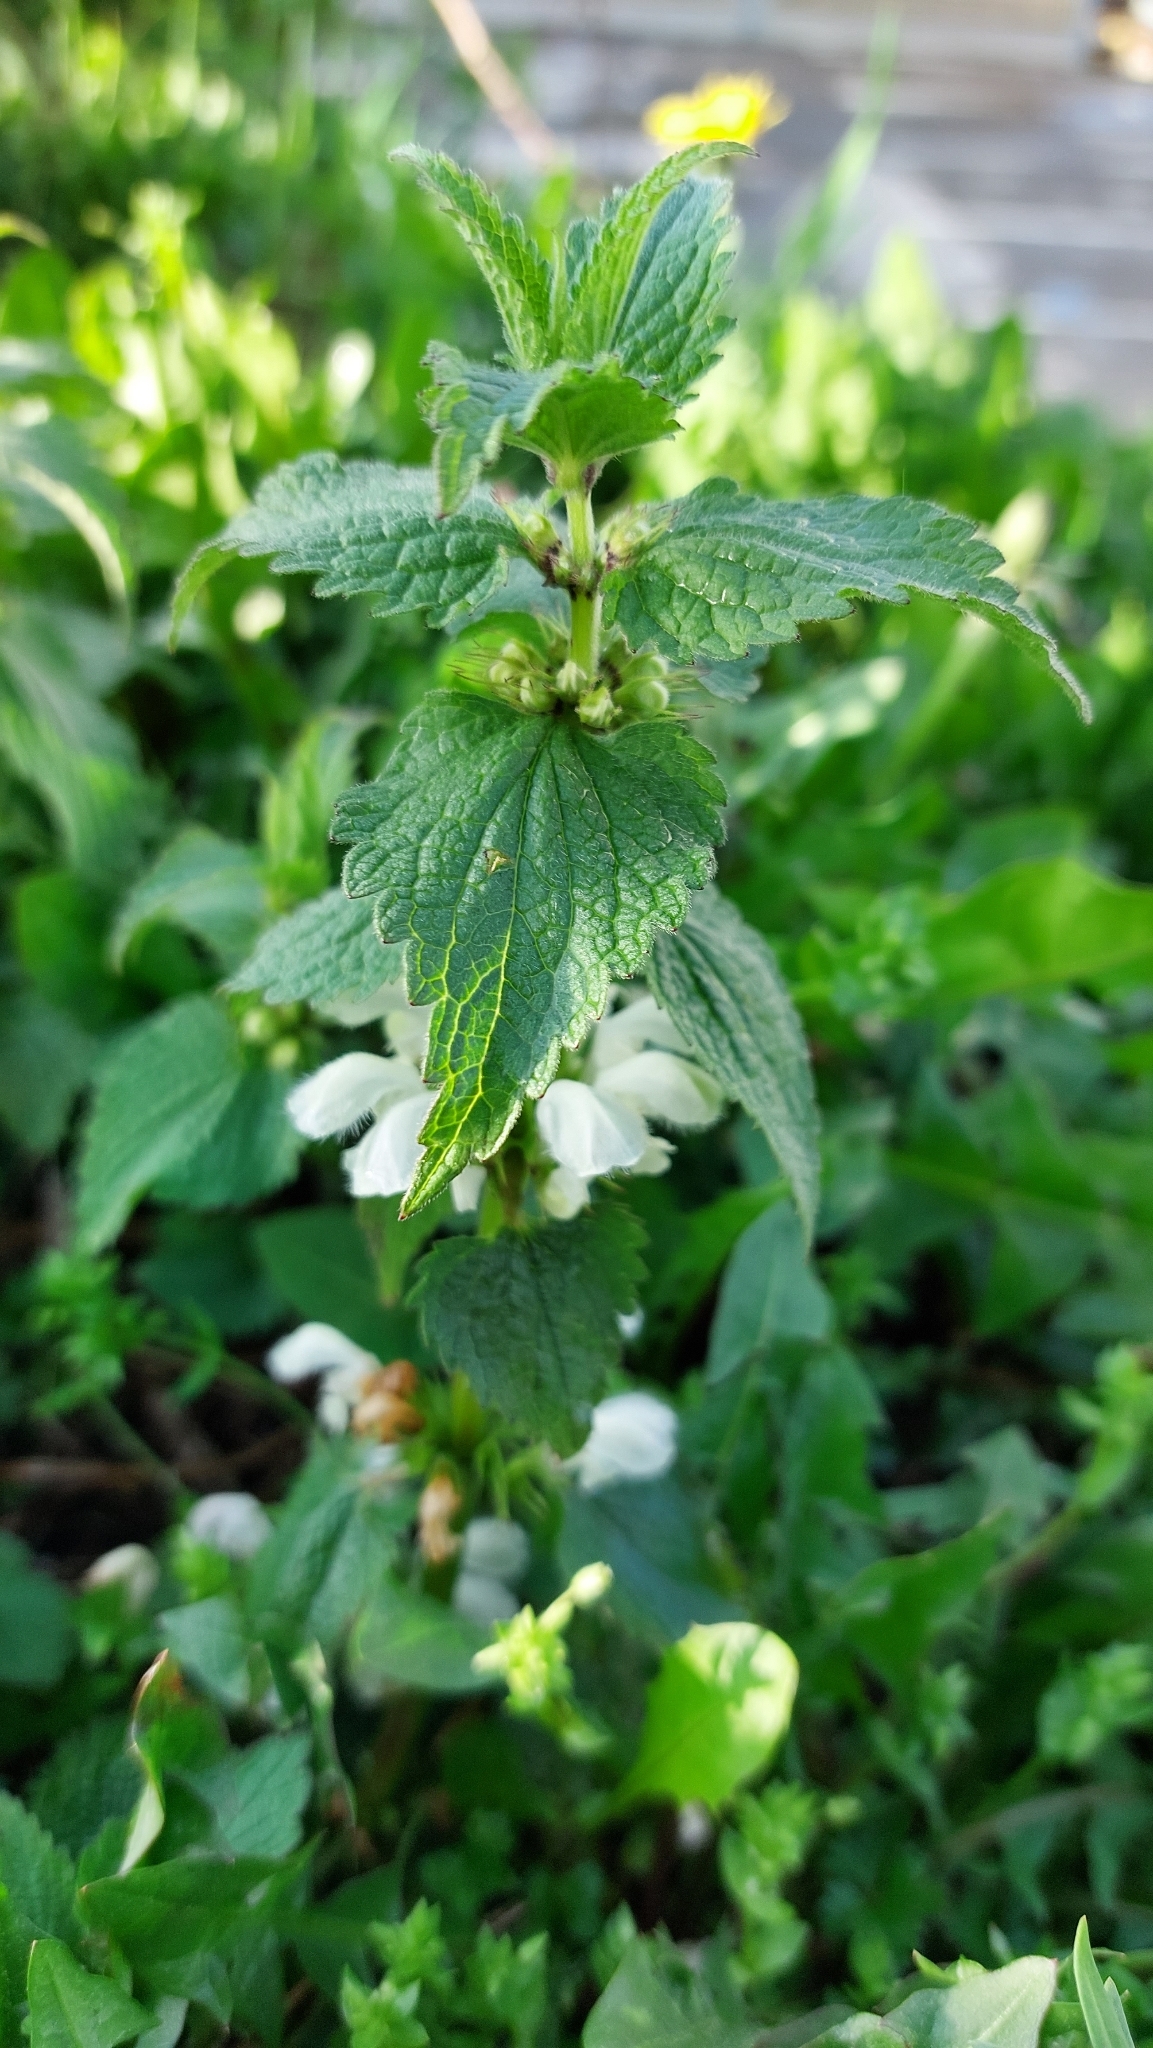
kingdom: Plantae
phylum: Tracheophyta
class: Magnoliopsida
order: Lamiales
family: Lamiaceae
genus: Lamium
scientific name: Lamium album
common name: White dead-nettle
